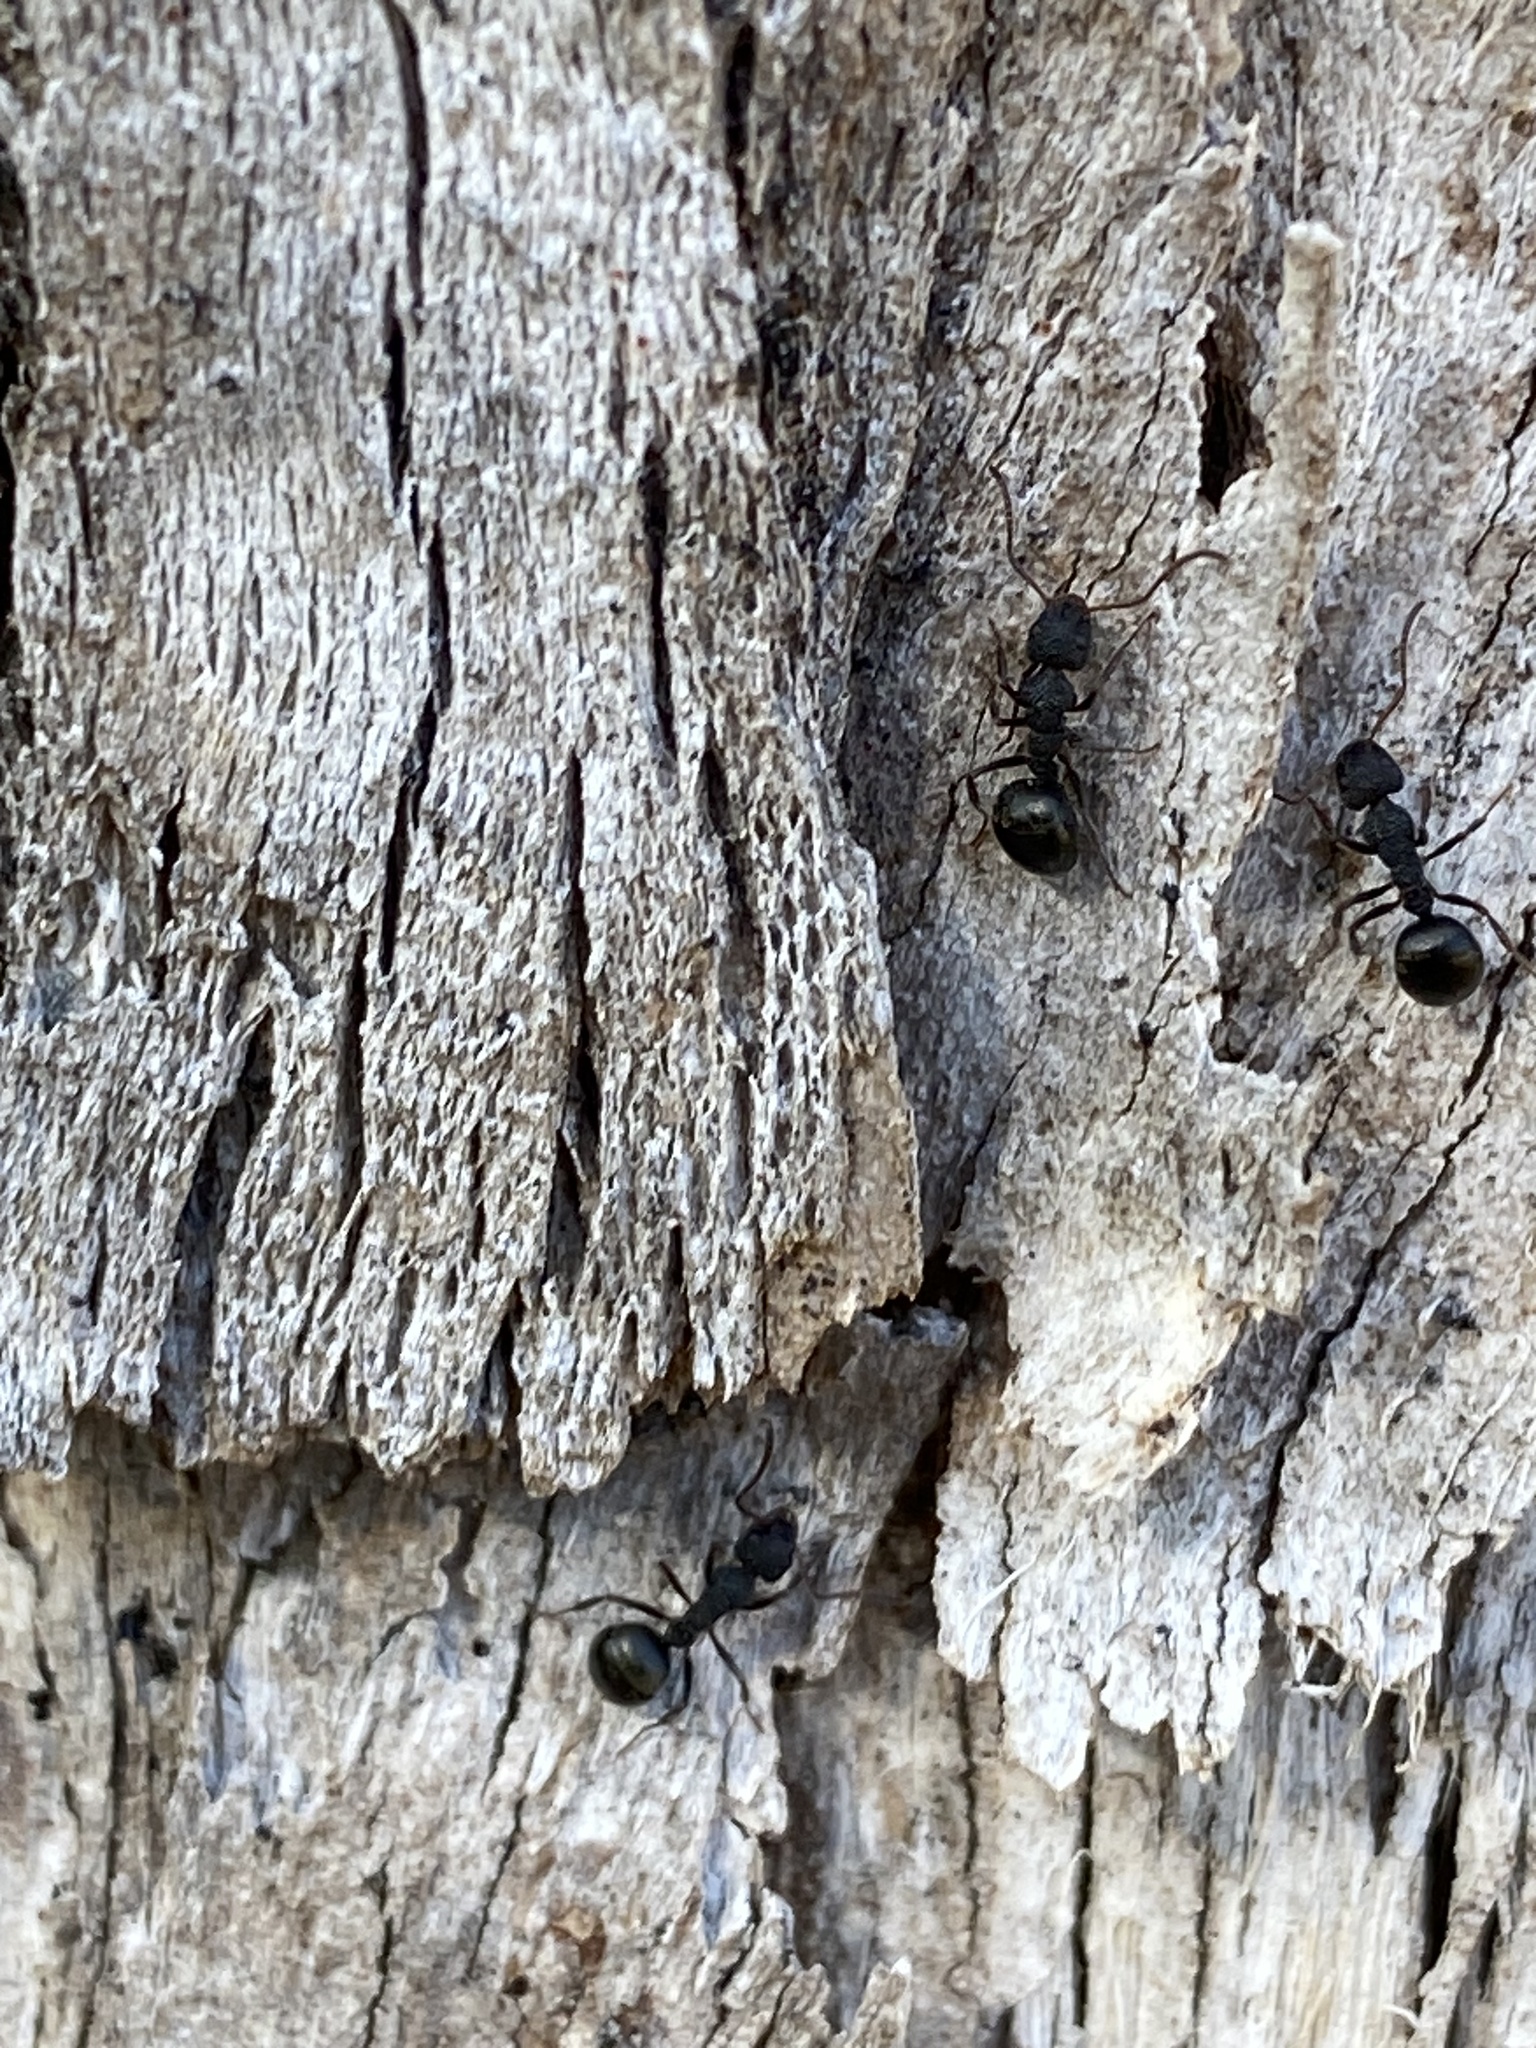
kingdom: Animalia
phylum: Arthropoda
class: Insecta
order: Hymenoptera
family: Formicidae
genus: Dolichoderus
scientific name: Dolichoderus scrobiculatus
